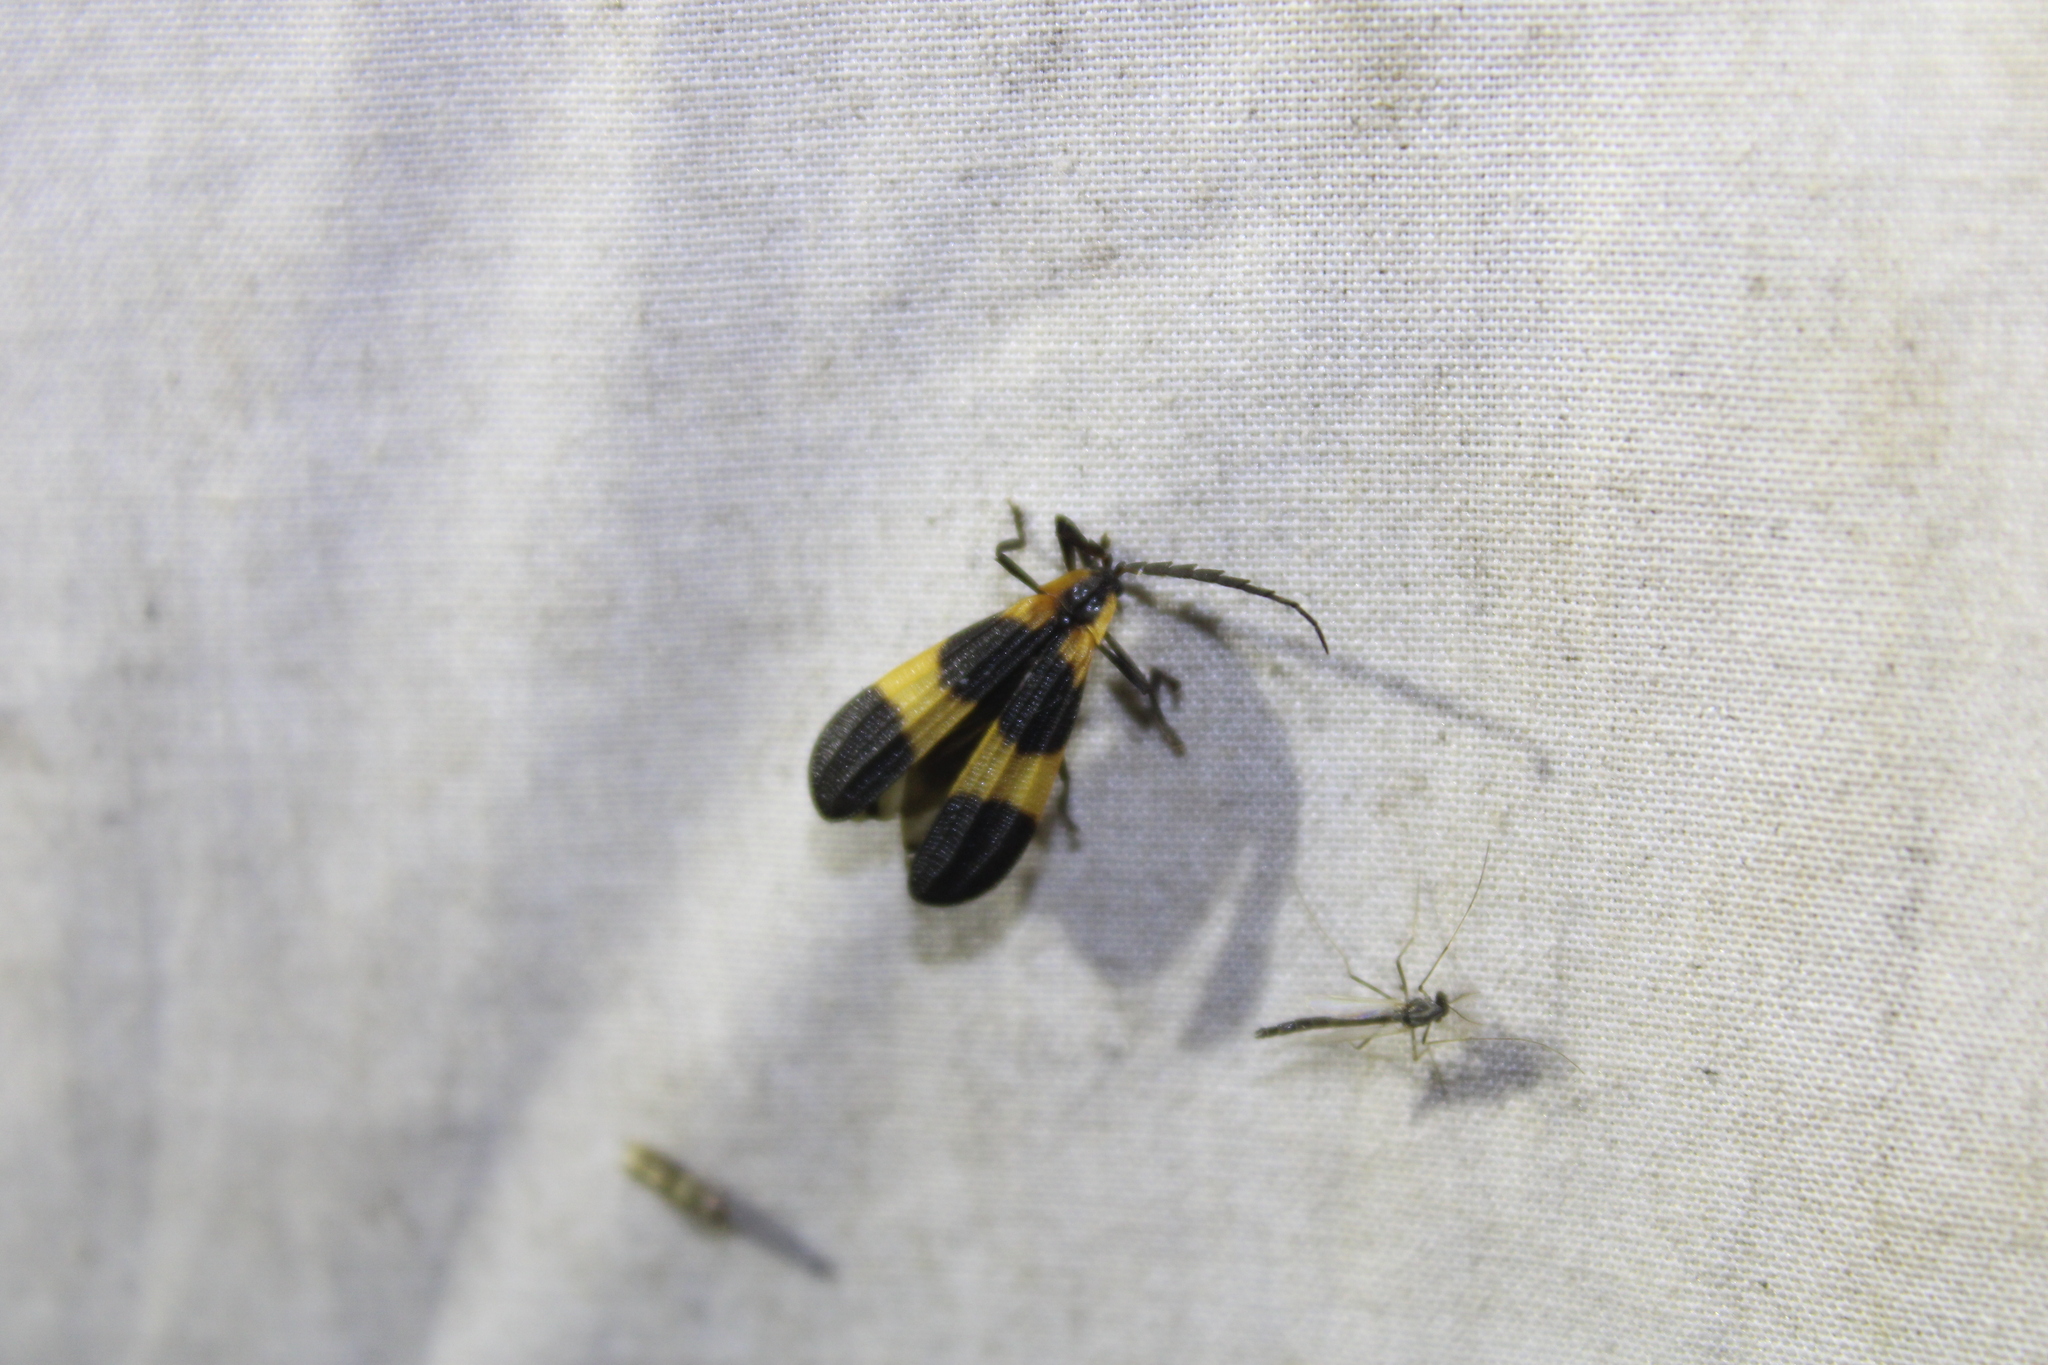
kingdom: Animalia
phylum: Arthropoda
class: Insecta
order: Coleoptera
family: Lycidae
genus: Calopteron
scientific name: Calopteron reticulatum
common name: Banded net-winged beetle
